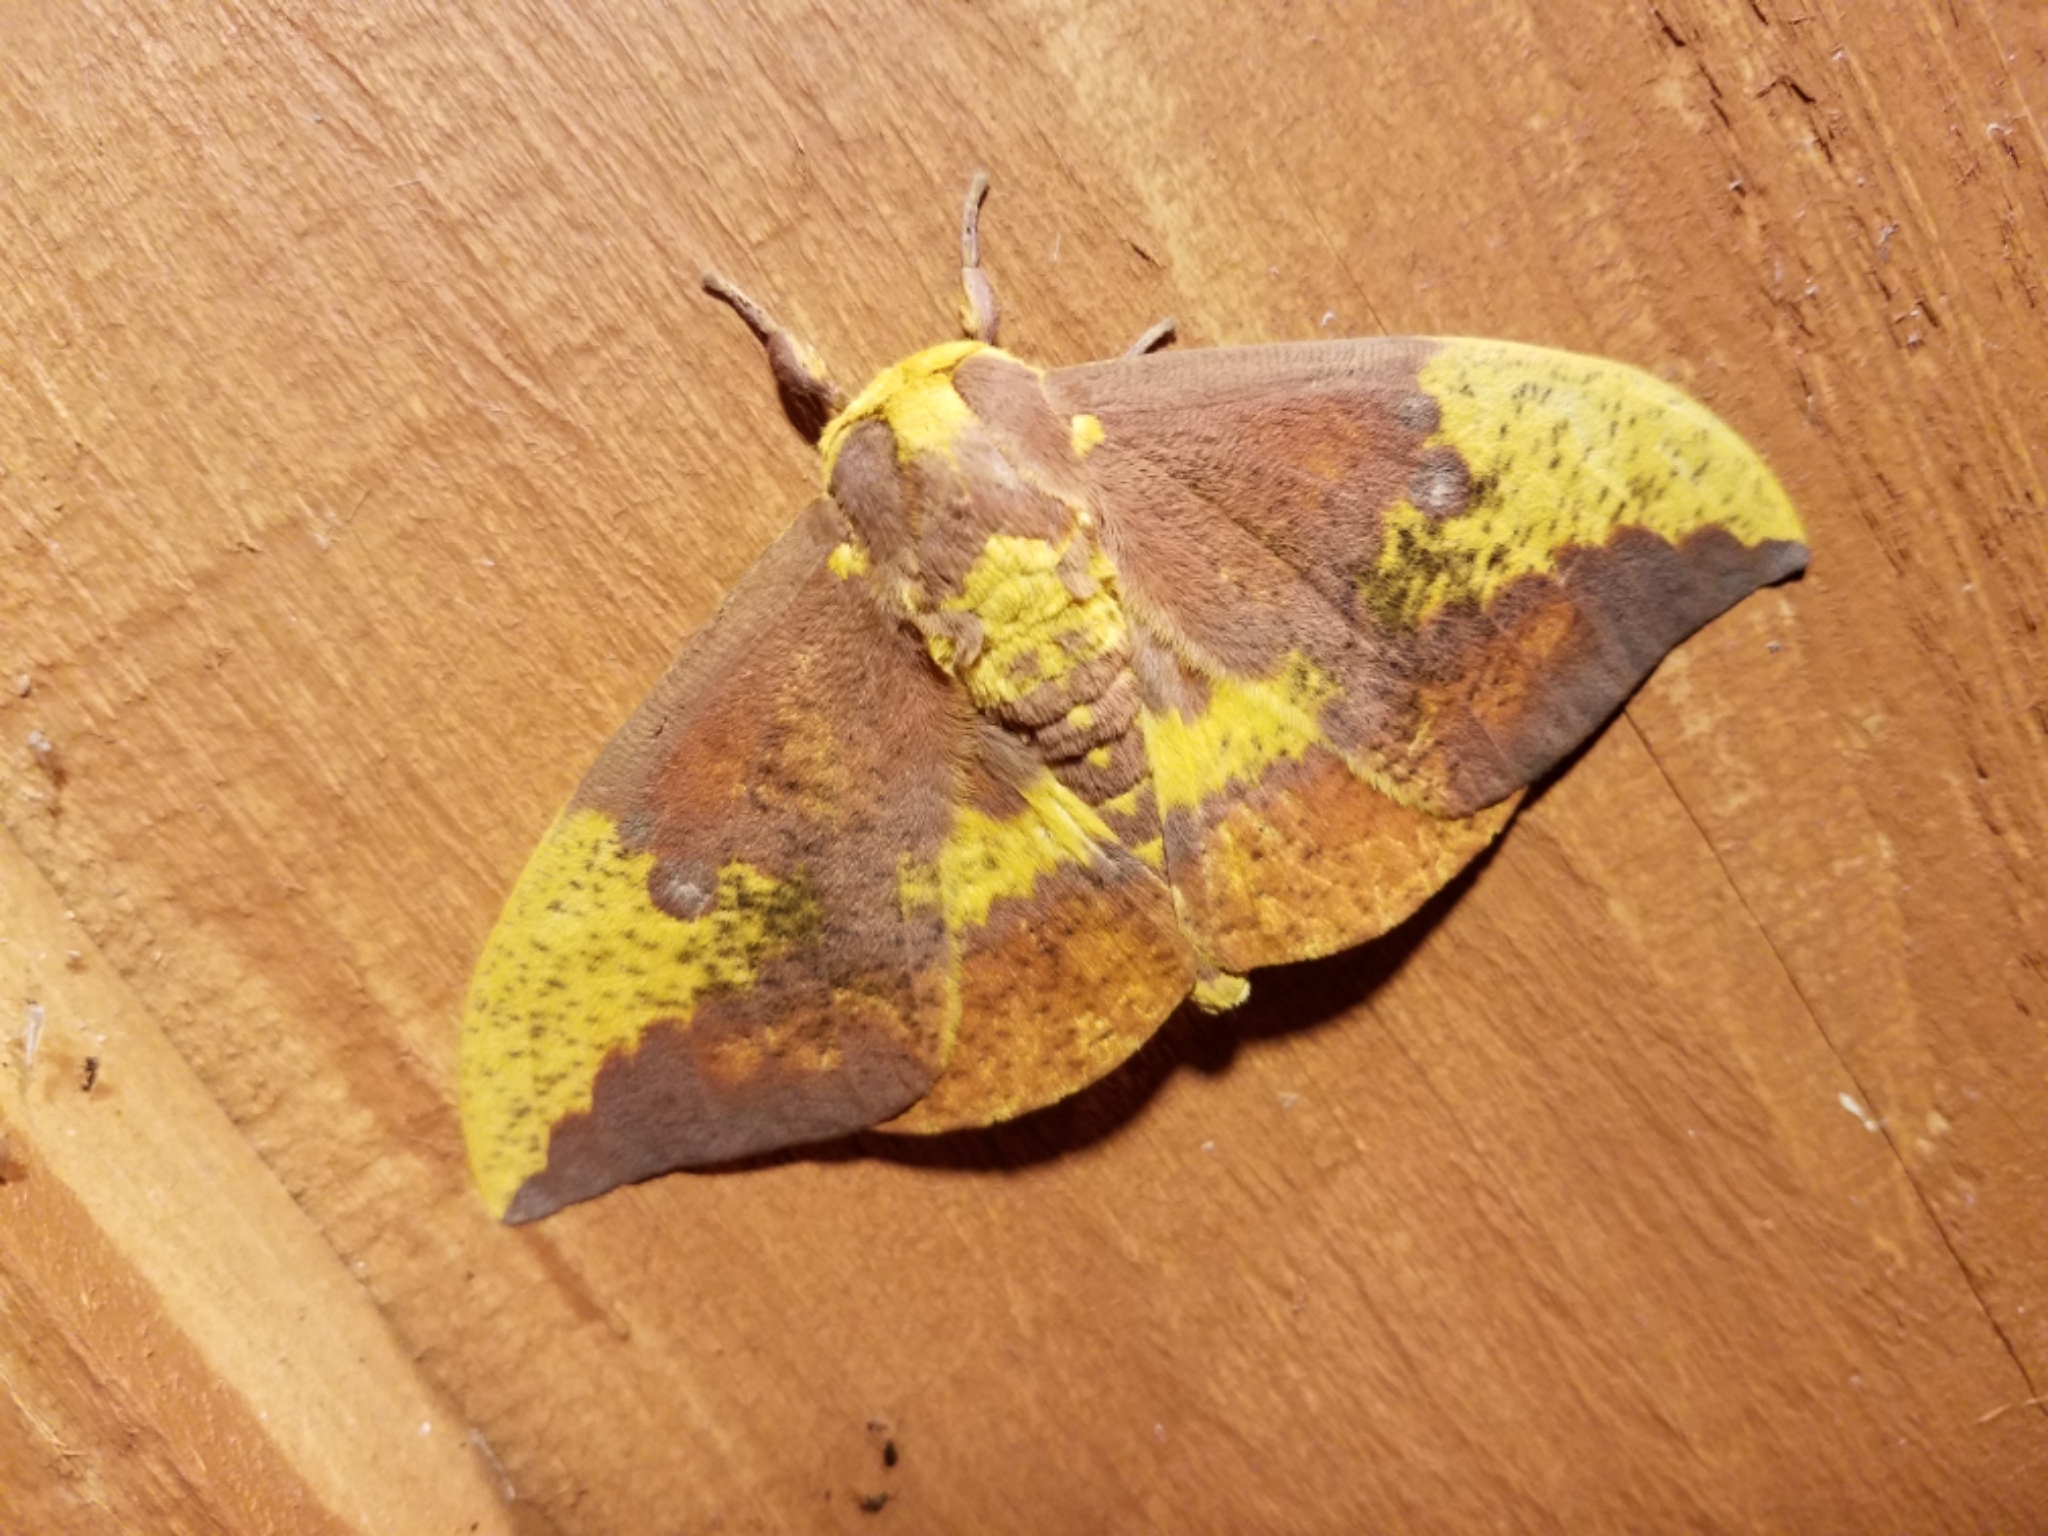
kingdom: Animalia
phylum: Arthropoda
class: Insecta
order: Lepidoptera
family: Saturniidae
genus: Eacles
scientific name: Eacles imperialis
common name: Imperial moth
